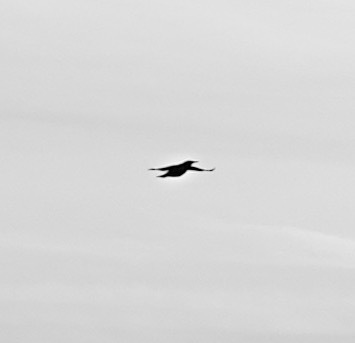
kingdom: Animalia
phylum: Chordata
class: Aves
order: Passeriformes
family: Icteridae
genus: Sturnella
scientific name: Sturnella neglecta
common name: Western meadowlark
